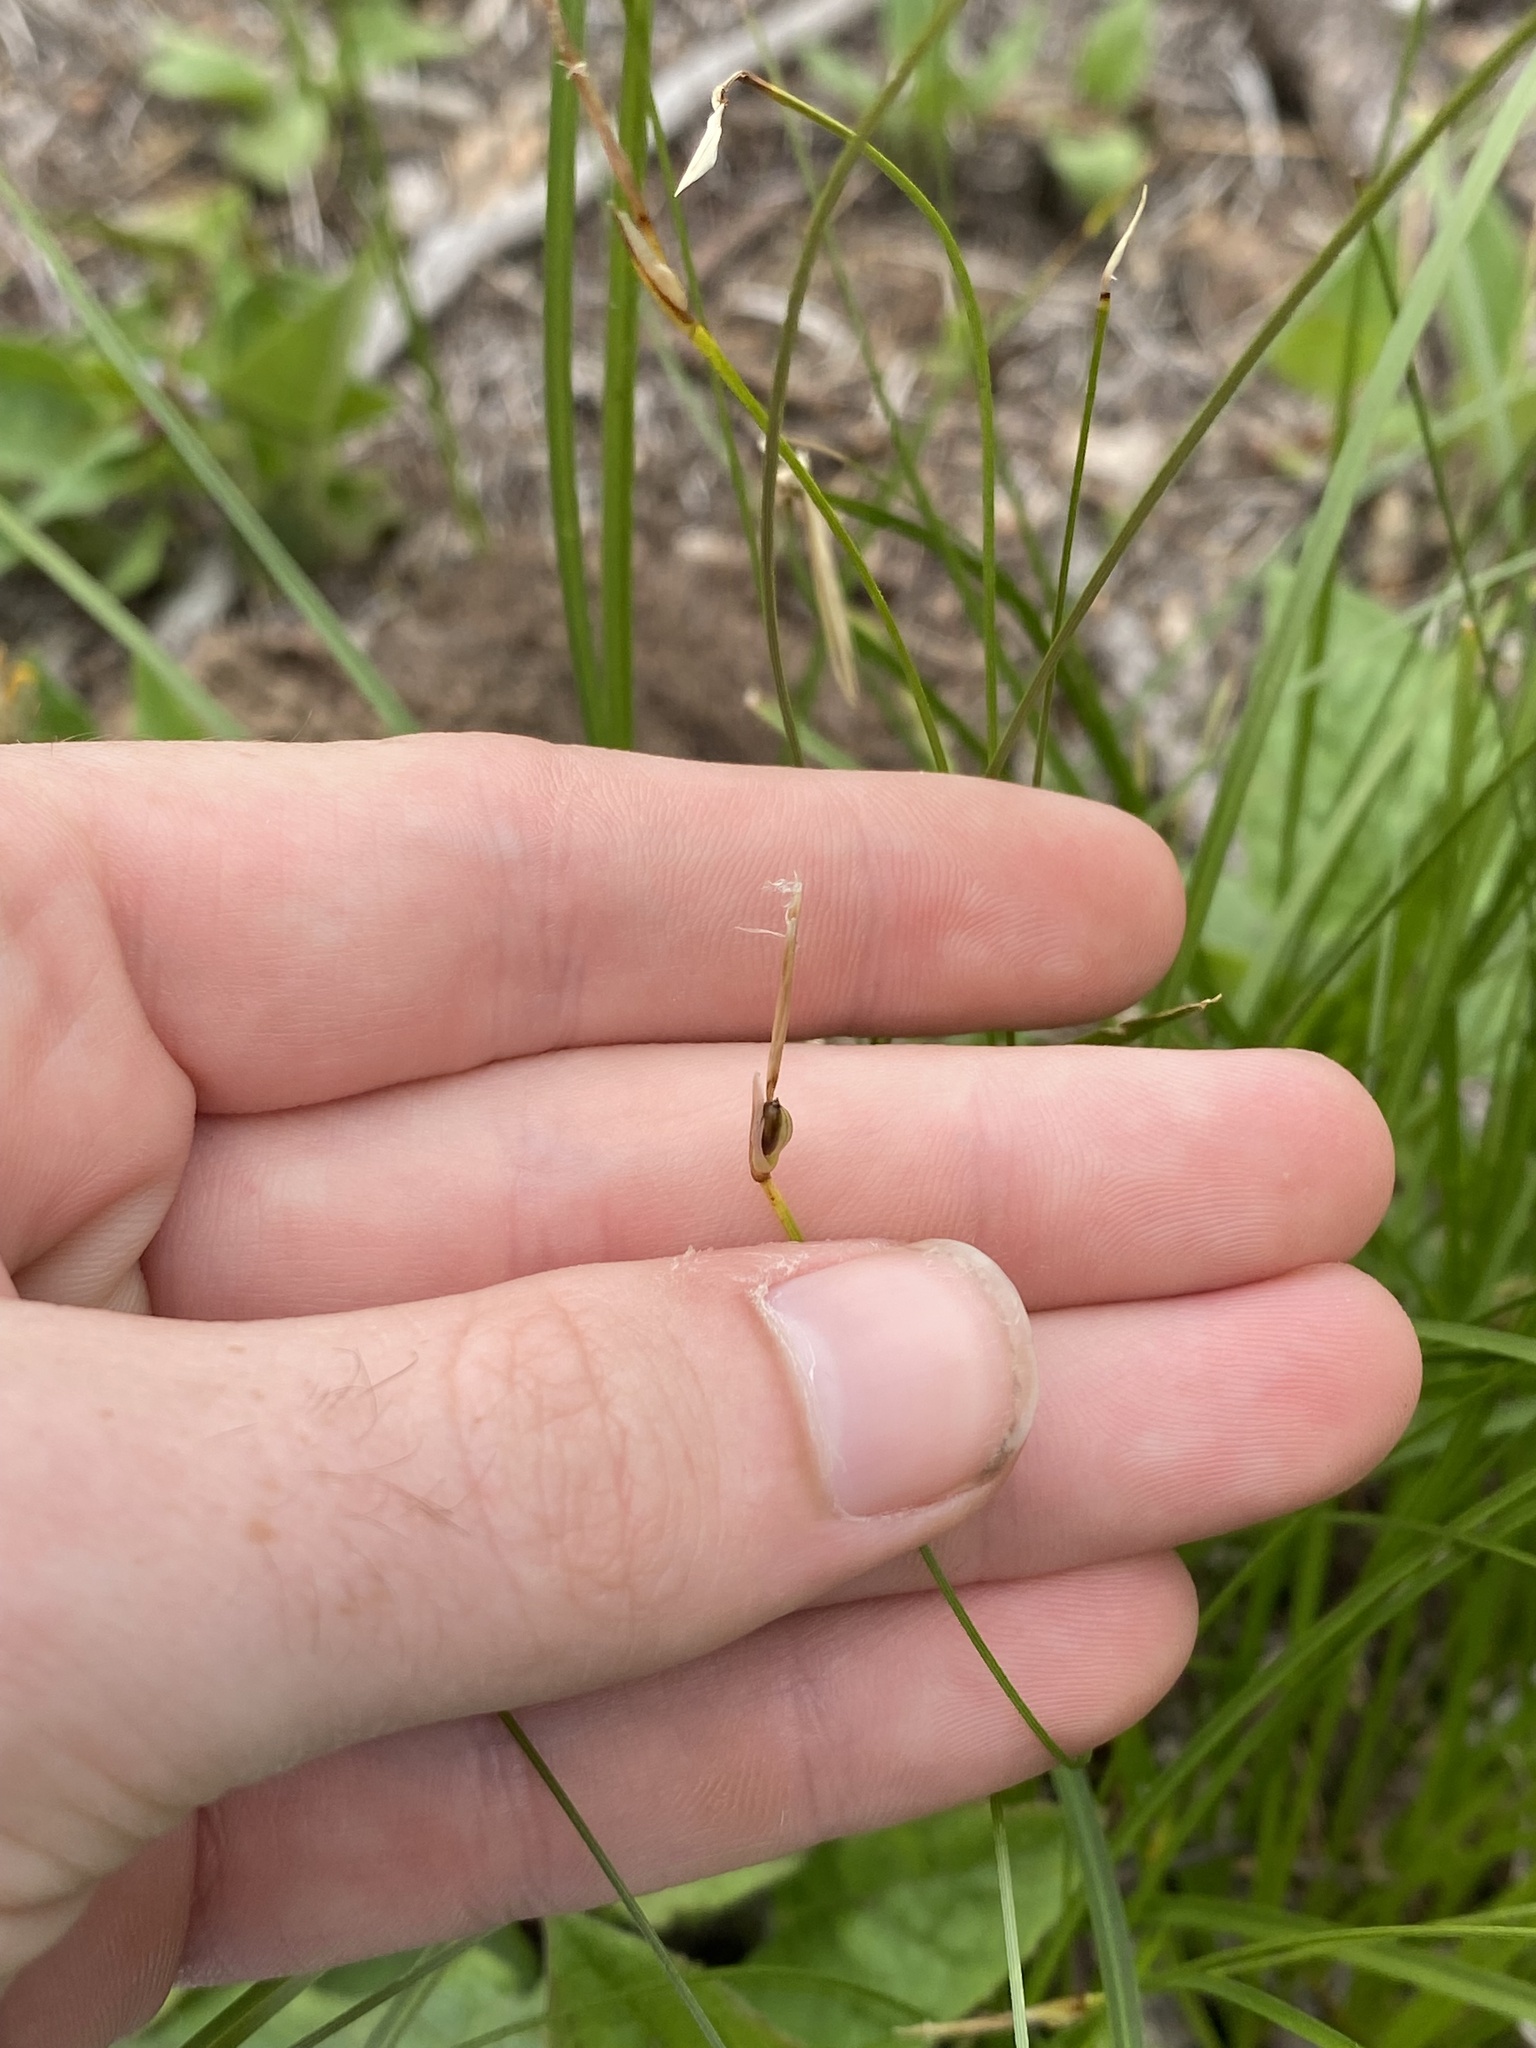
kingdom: Plantae
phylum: Tracheophyta
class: Liliopsida
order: Poales
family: Cyperaceae
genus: Carex
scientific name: Carex geyeri
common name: Elk sedge
